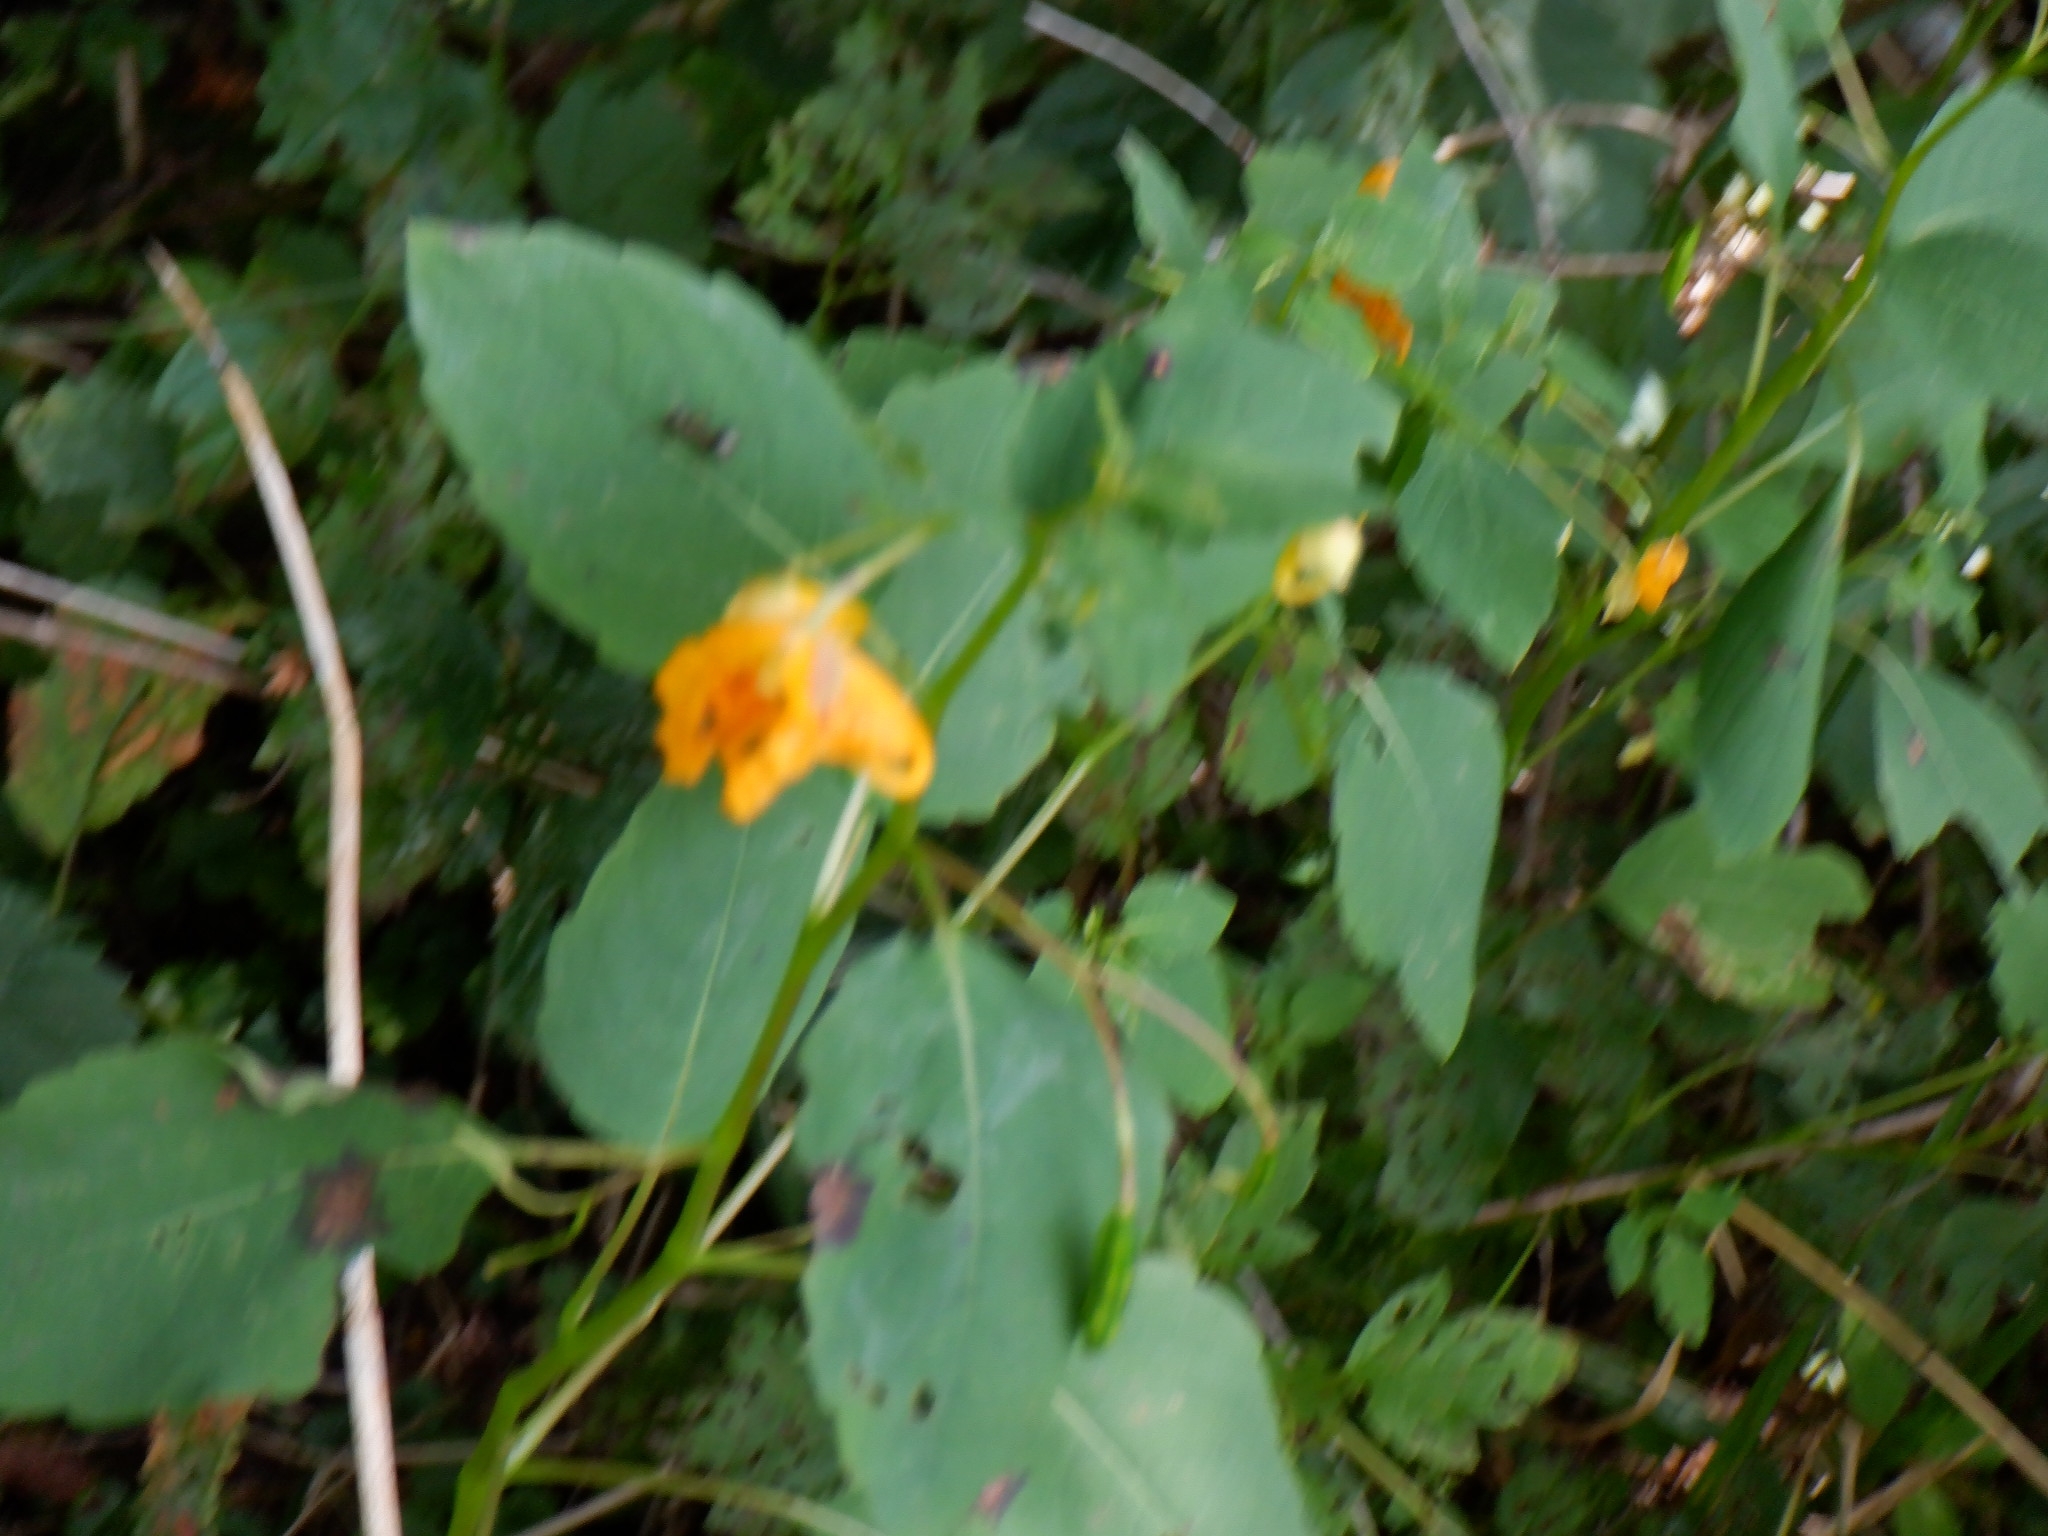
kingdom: Plantae
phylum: Tracheophyta
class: Magnoliopsida
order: Ericales
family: Balsaminaceae
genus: Impatiens
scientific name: Impatiens capensis
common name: Orange balsam
